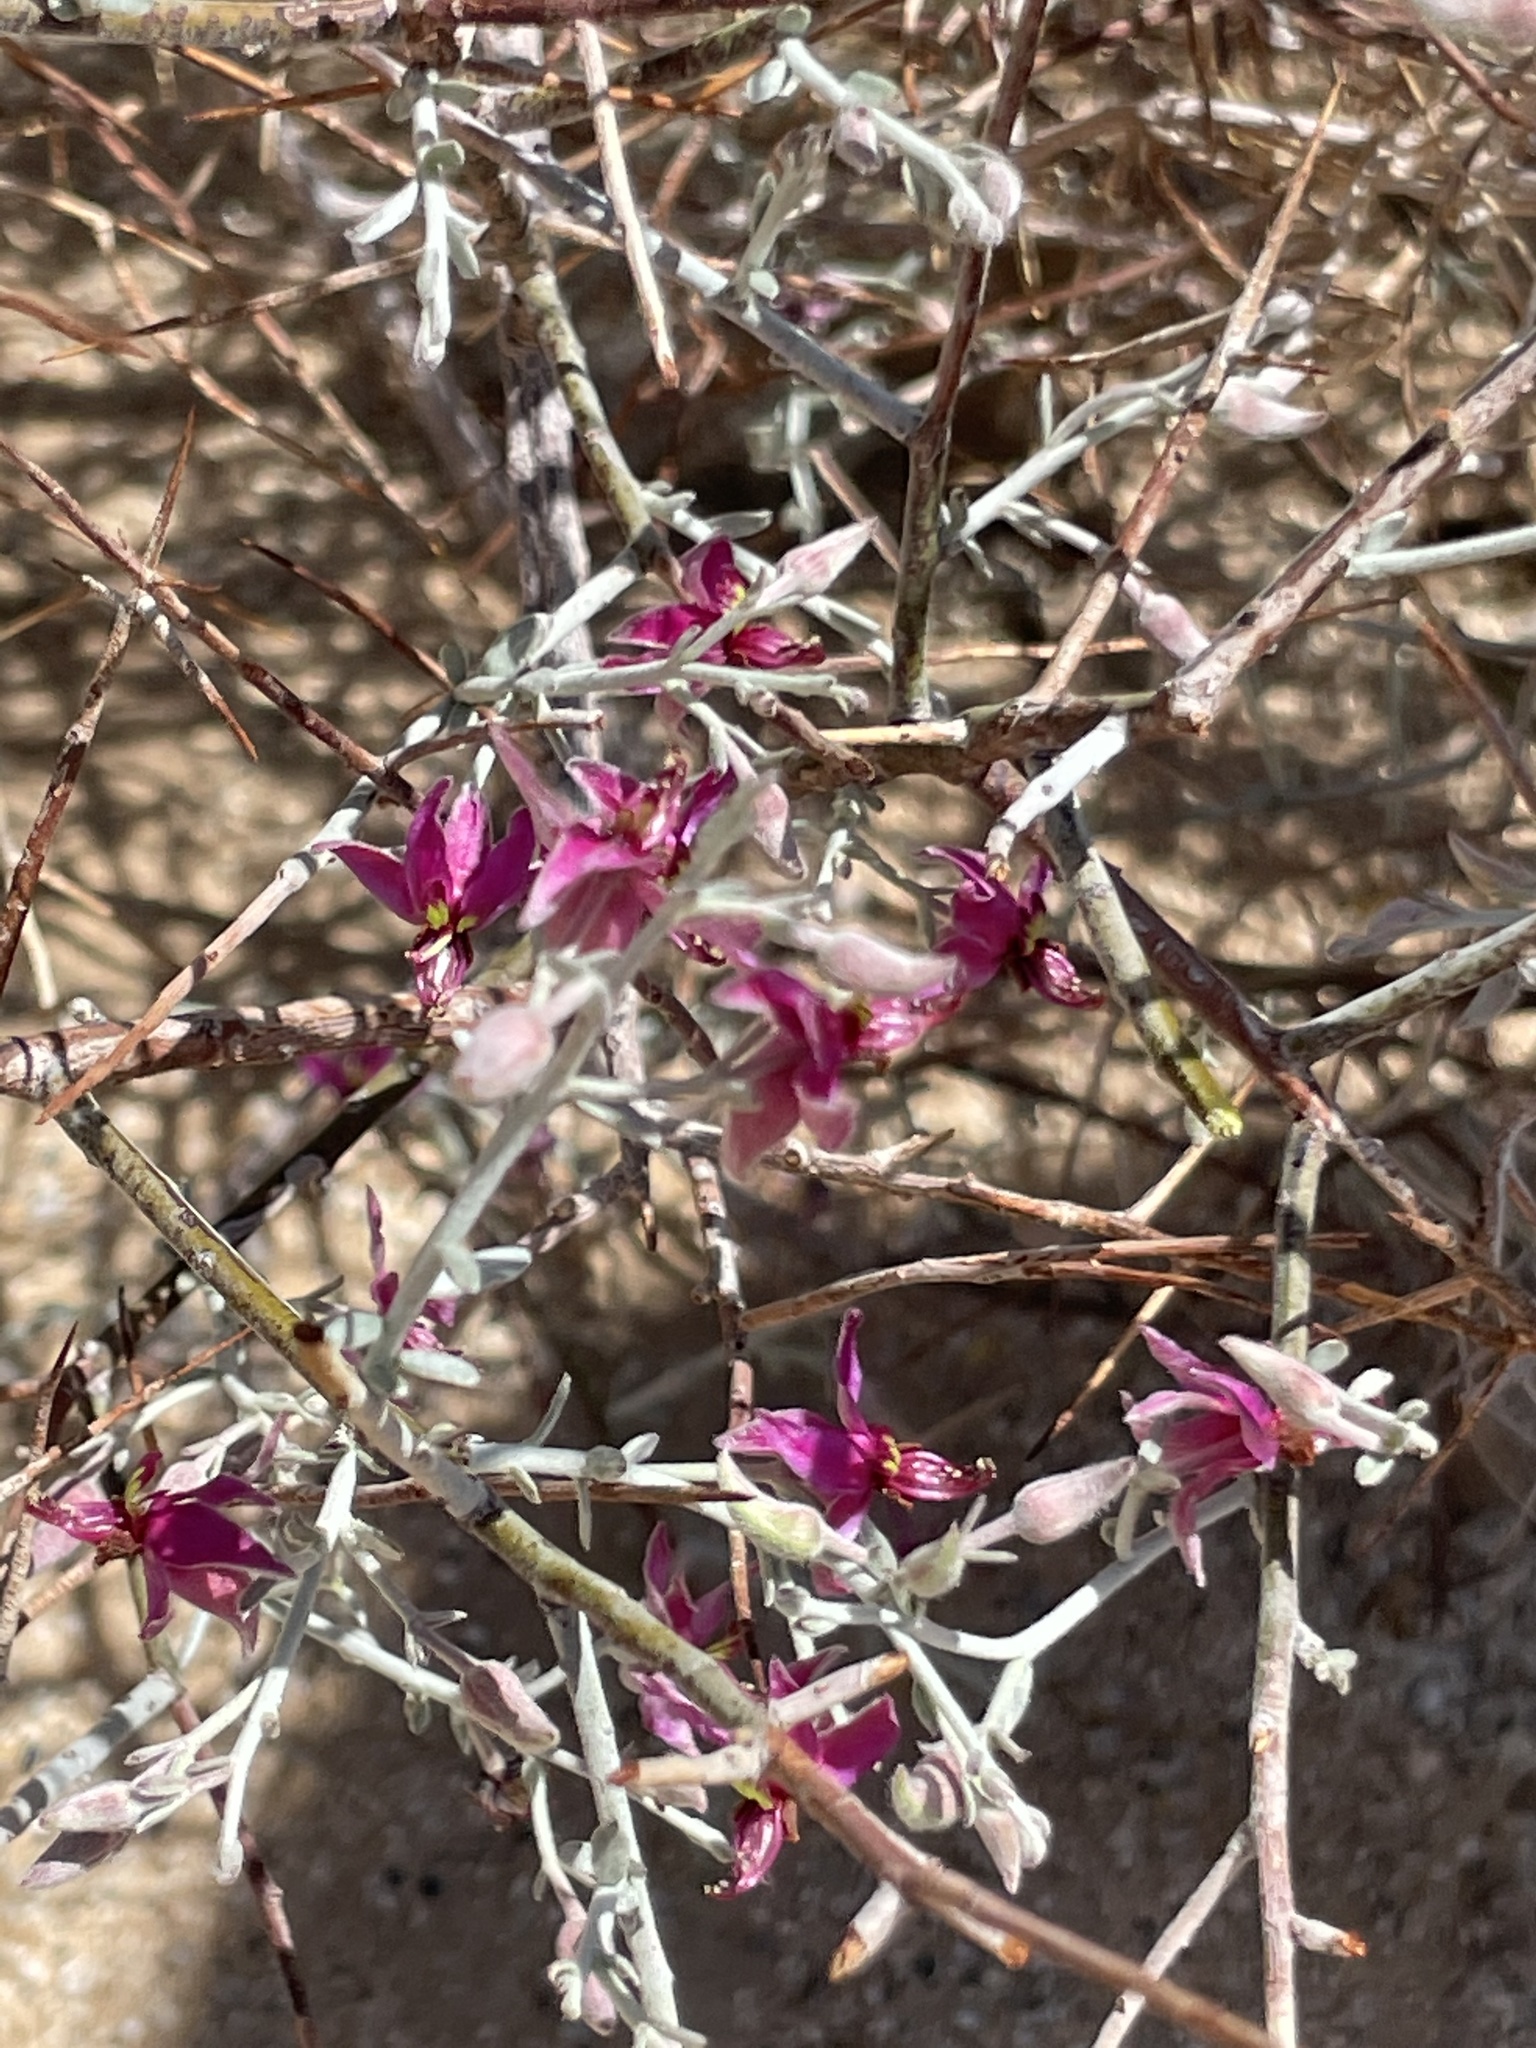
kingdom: Plantae
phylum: Tracheophyta
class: Magnoliopsida
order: Zygophyllales
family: Krameriaceae
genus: Krameria
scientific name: Krameria bicolor
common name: White ratany
